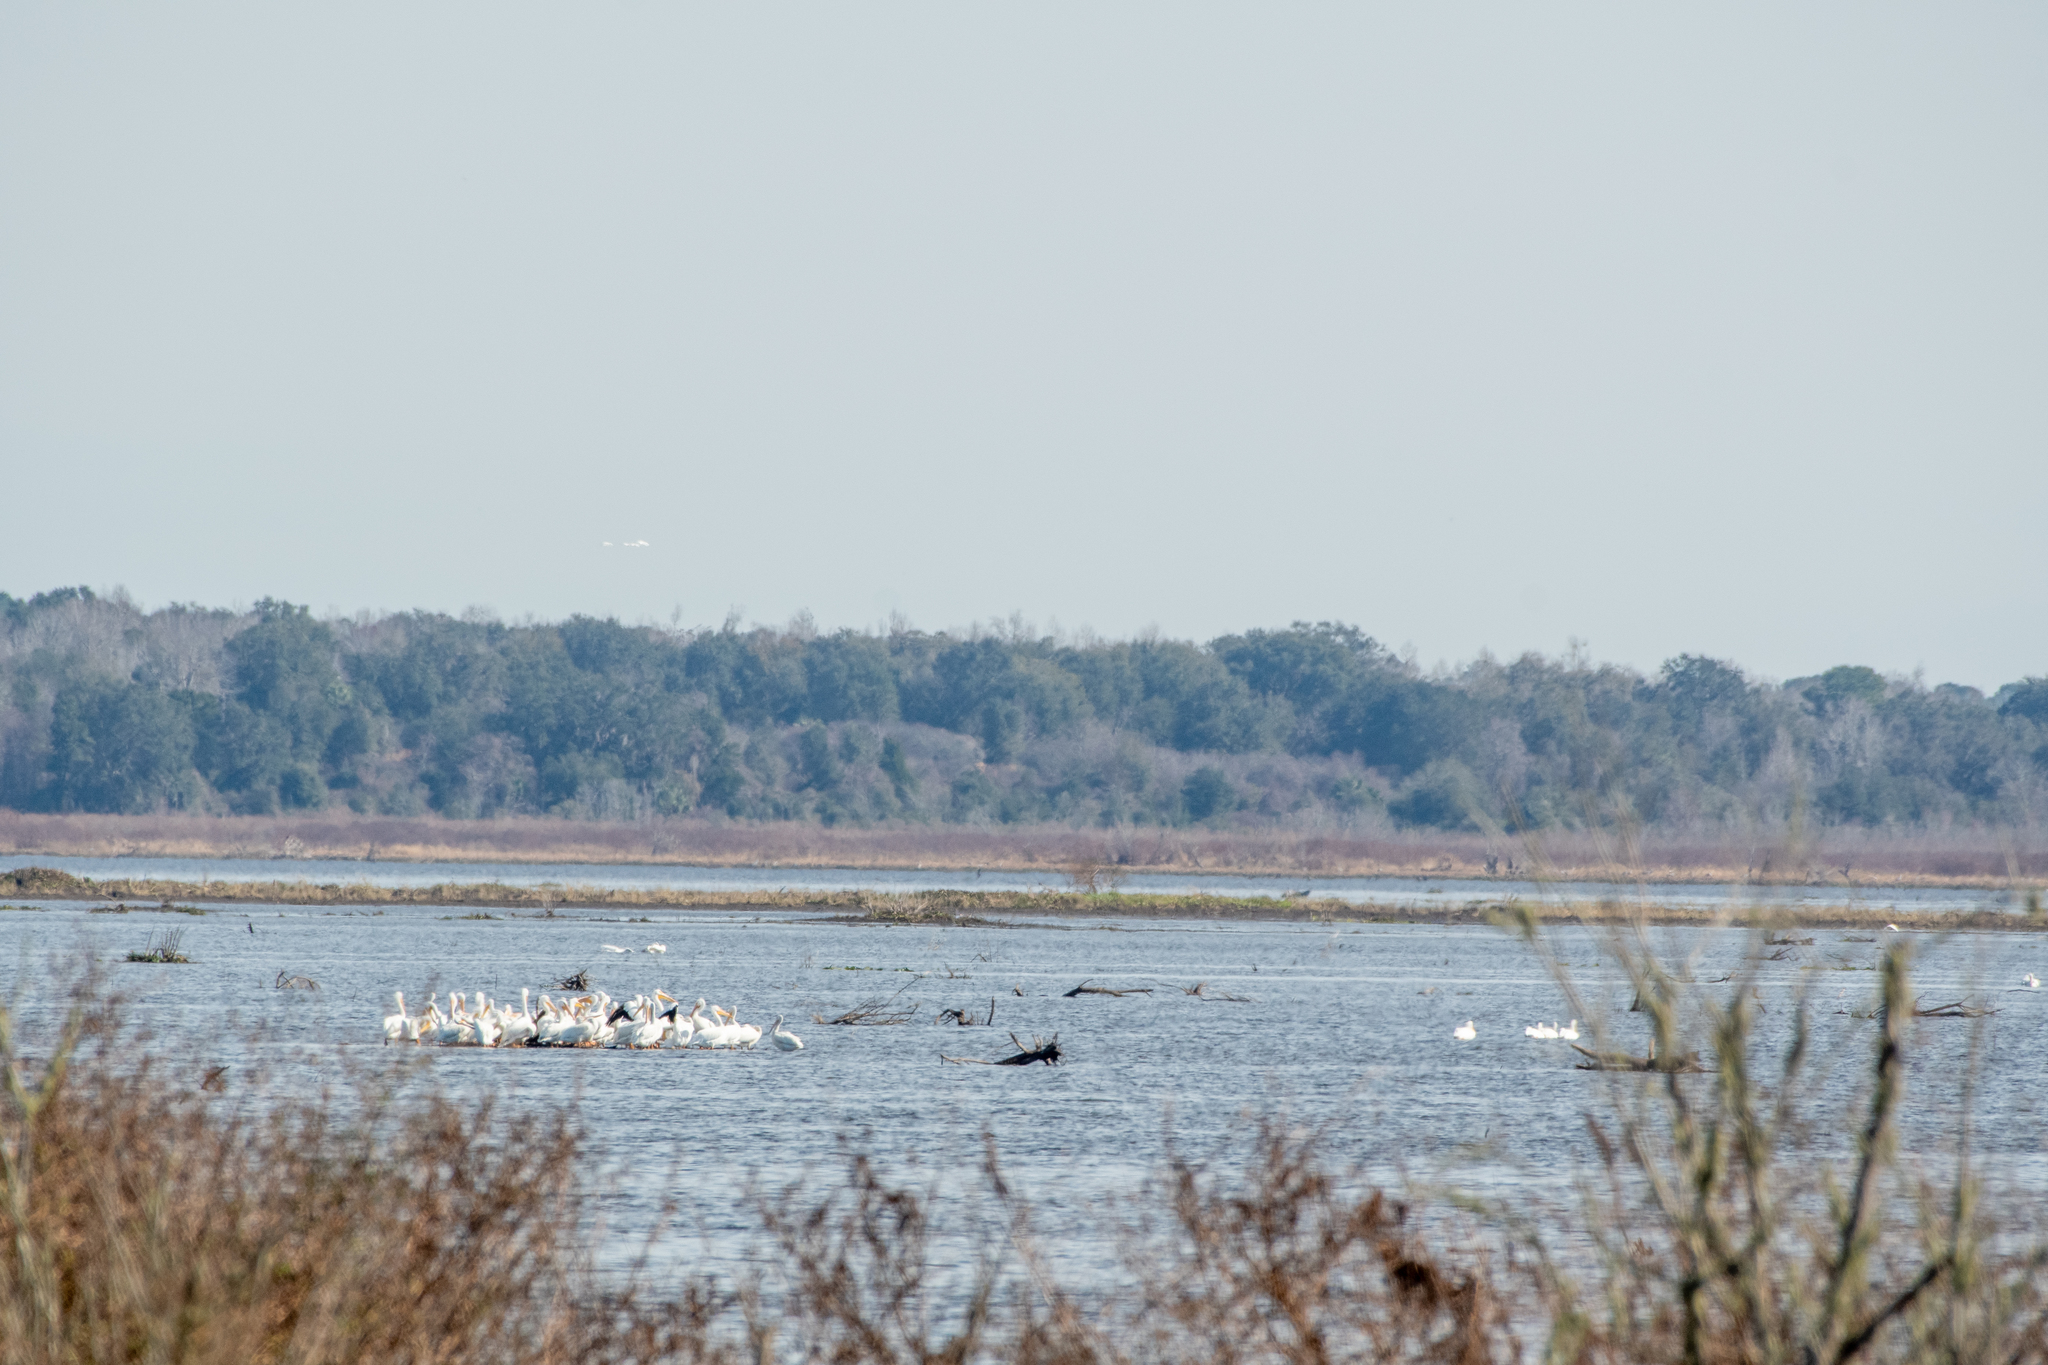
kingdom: Animalia
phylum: Chordata
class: Aves
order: Pelecaniformes
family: Pelecanidae
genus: Pelecanus
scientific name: Pelecanus erythrorhynchos
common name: American white pelican
